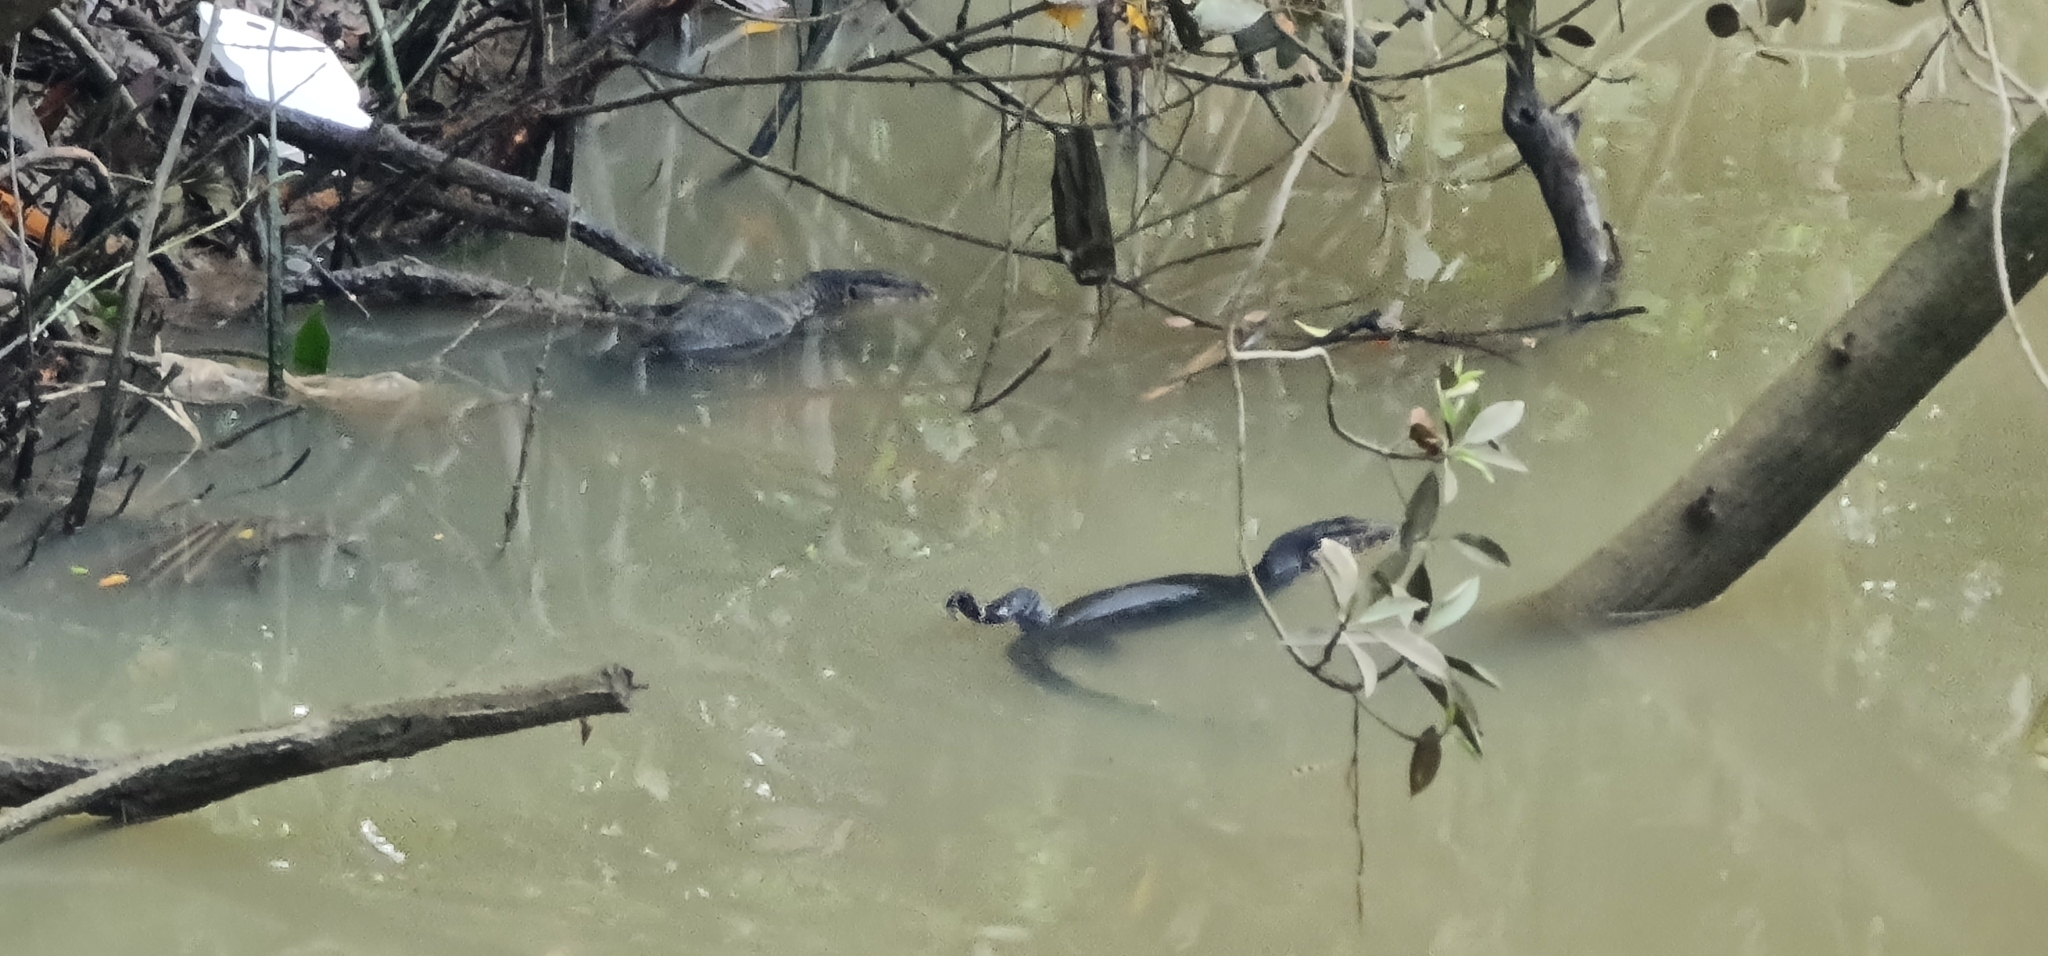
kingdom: Animalia
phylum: Chordata
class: Squamata
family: Varanidae
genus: Varanus
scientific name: Varanus salvator
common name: Common water monitor
